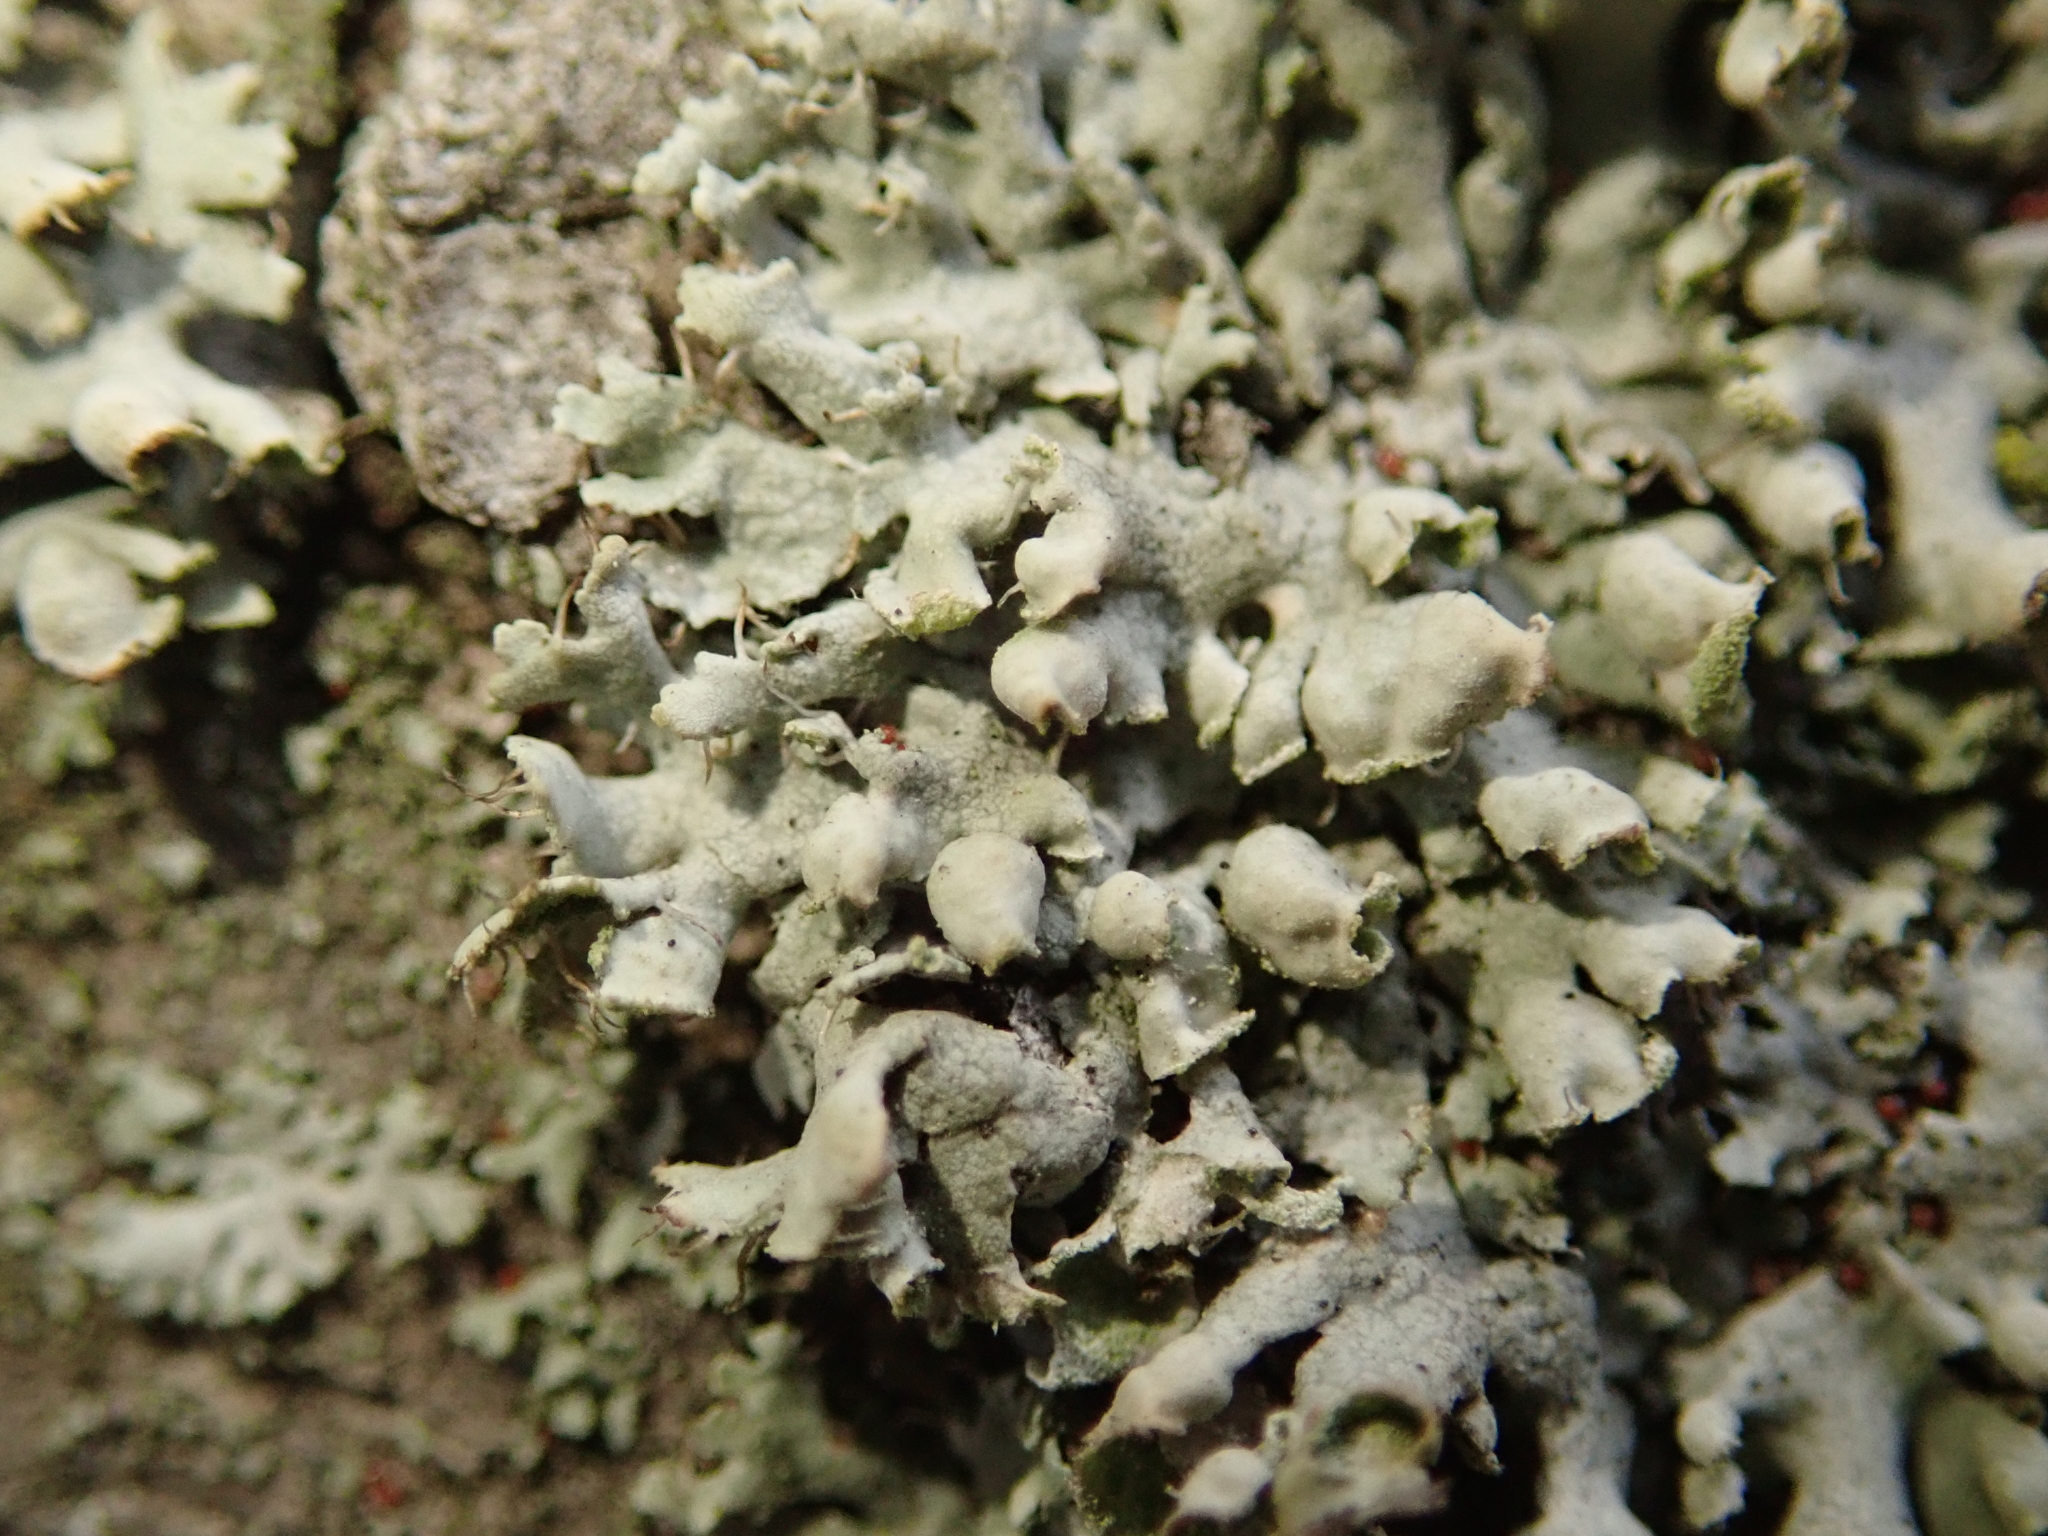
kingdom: Fungi
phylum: Ascomycota
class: Lecanoromycetes
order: Caliciales
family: Physciaceae
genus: Physcia
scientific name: Physcia adscendens
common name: Hooded rosette lichen
